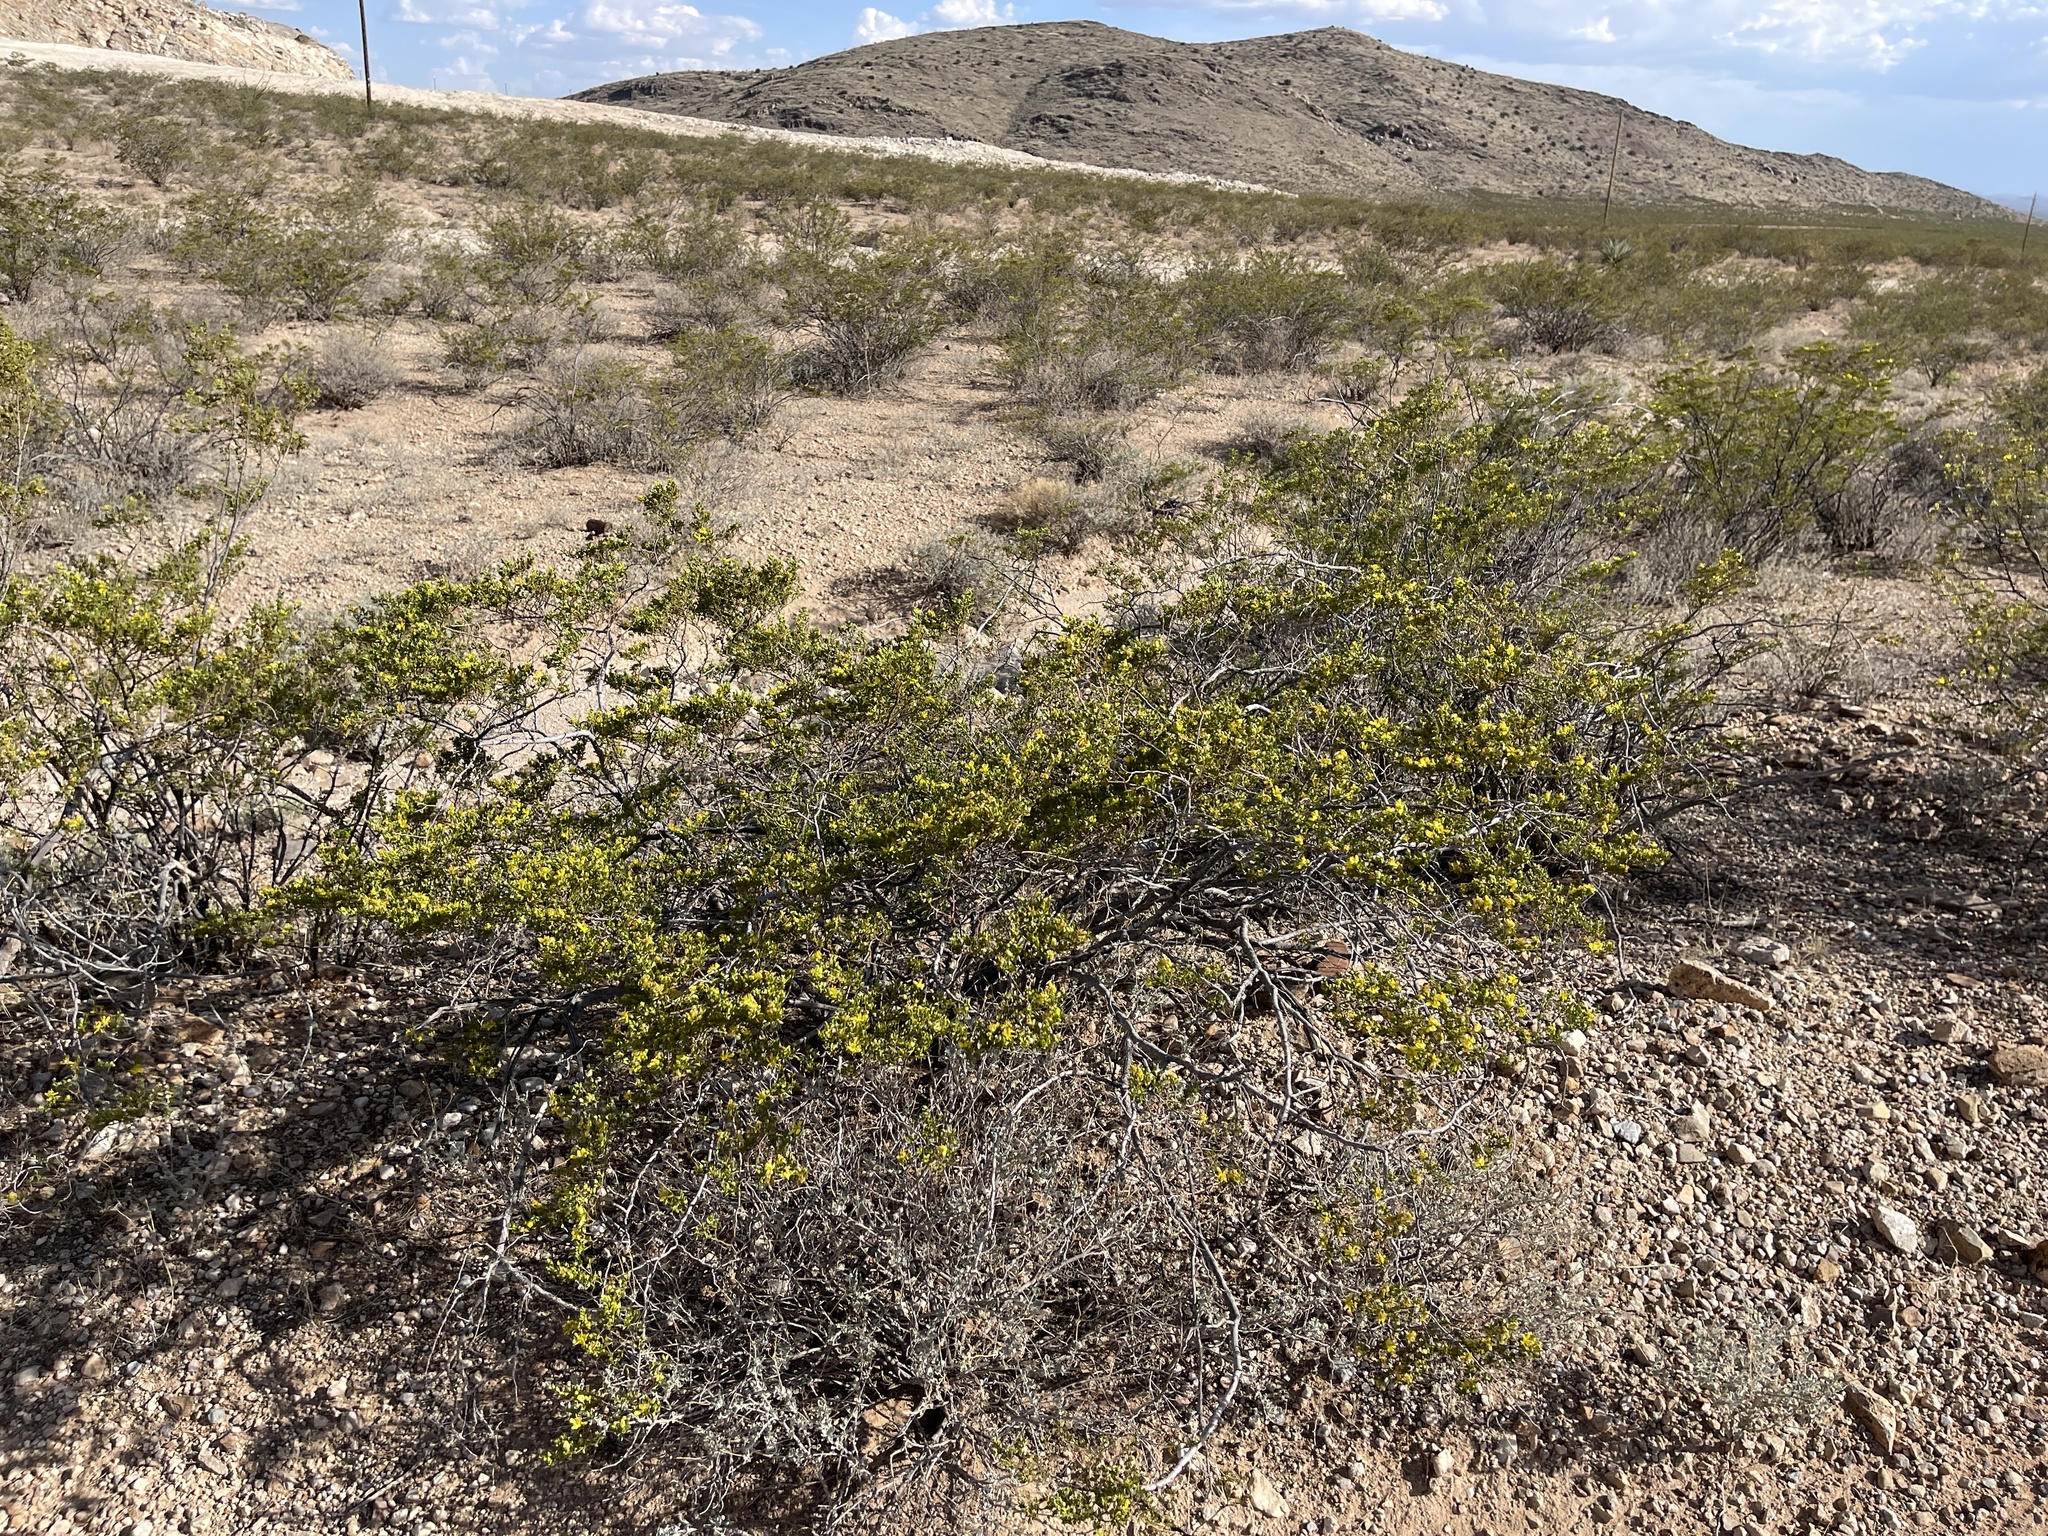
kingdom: Plantae
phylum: Tracheophyta
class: Magnoliopsida
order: Zygophyllales
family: Zygophyllaceae
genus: Larrea
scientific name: Larrea tridentata
